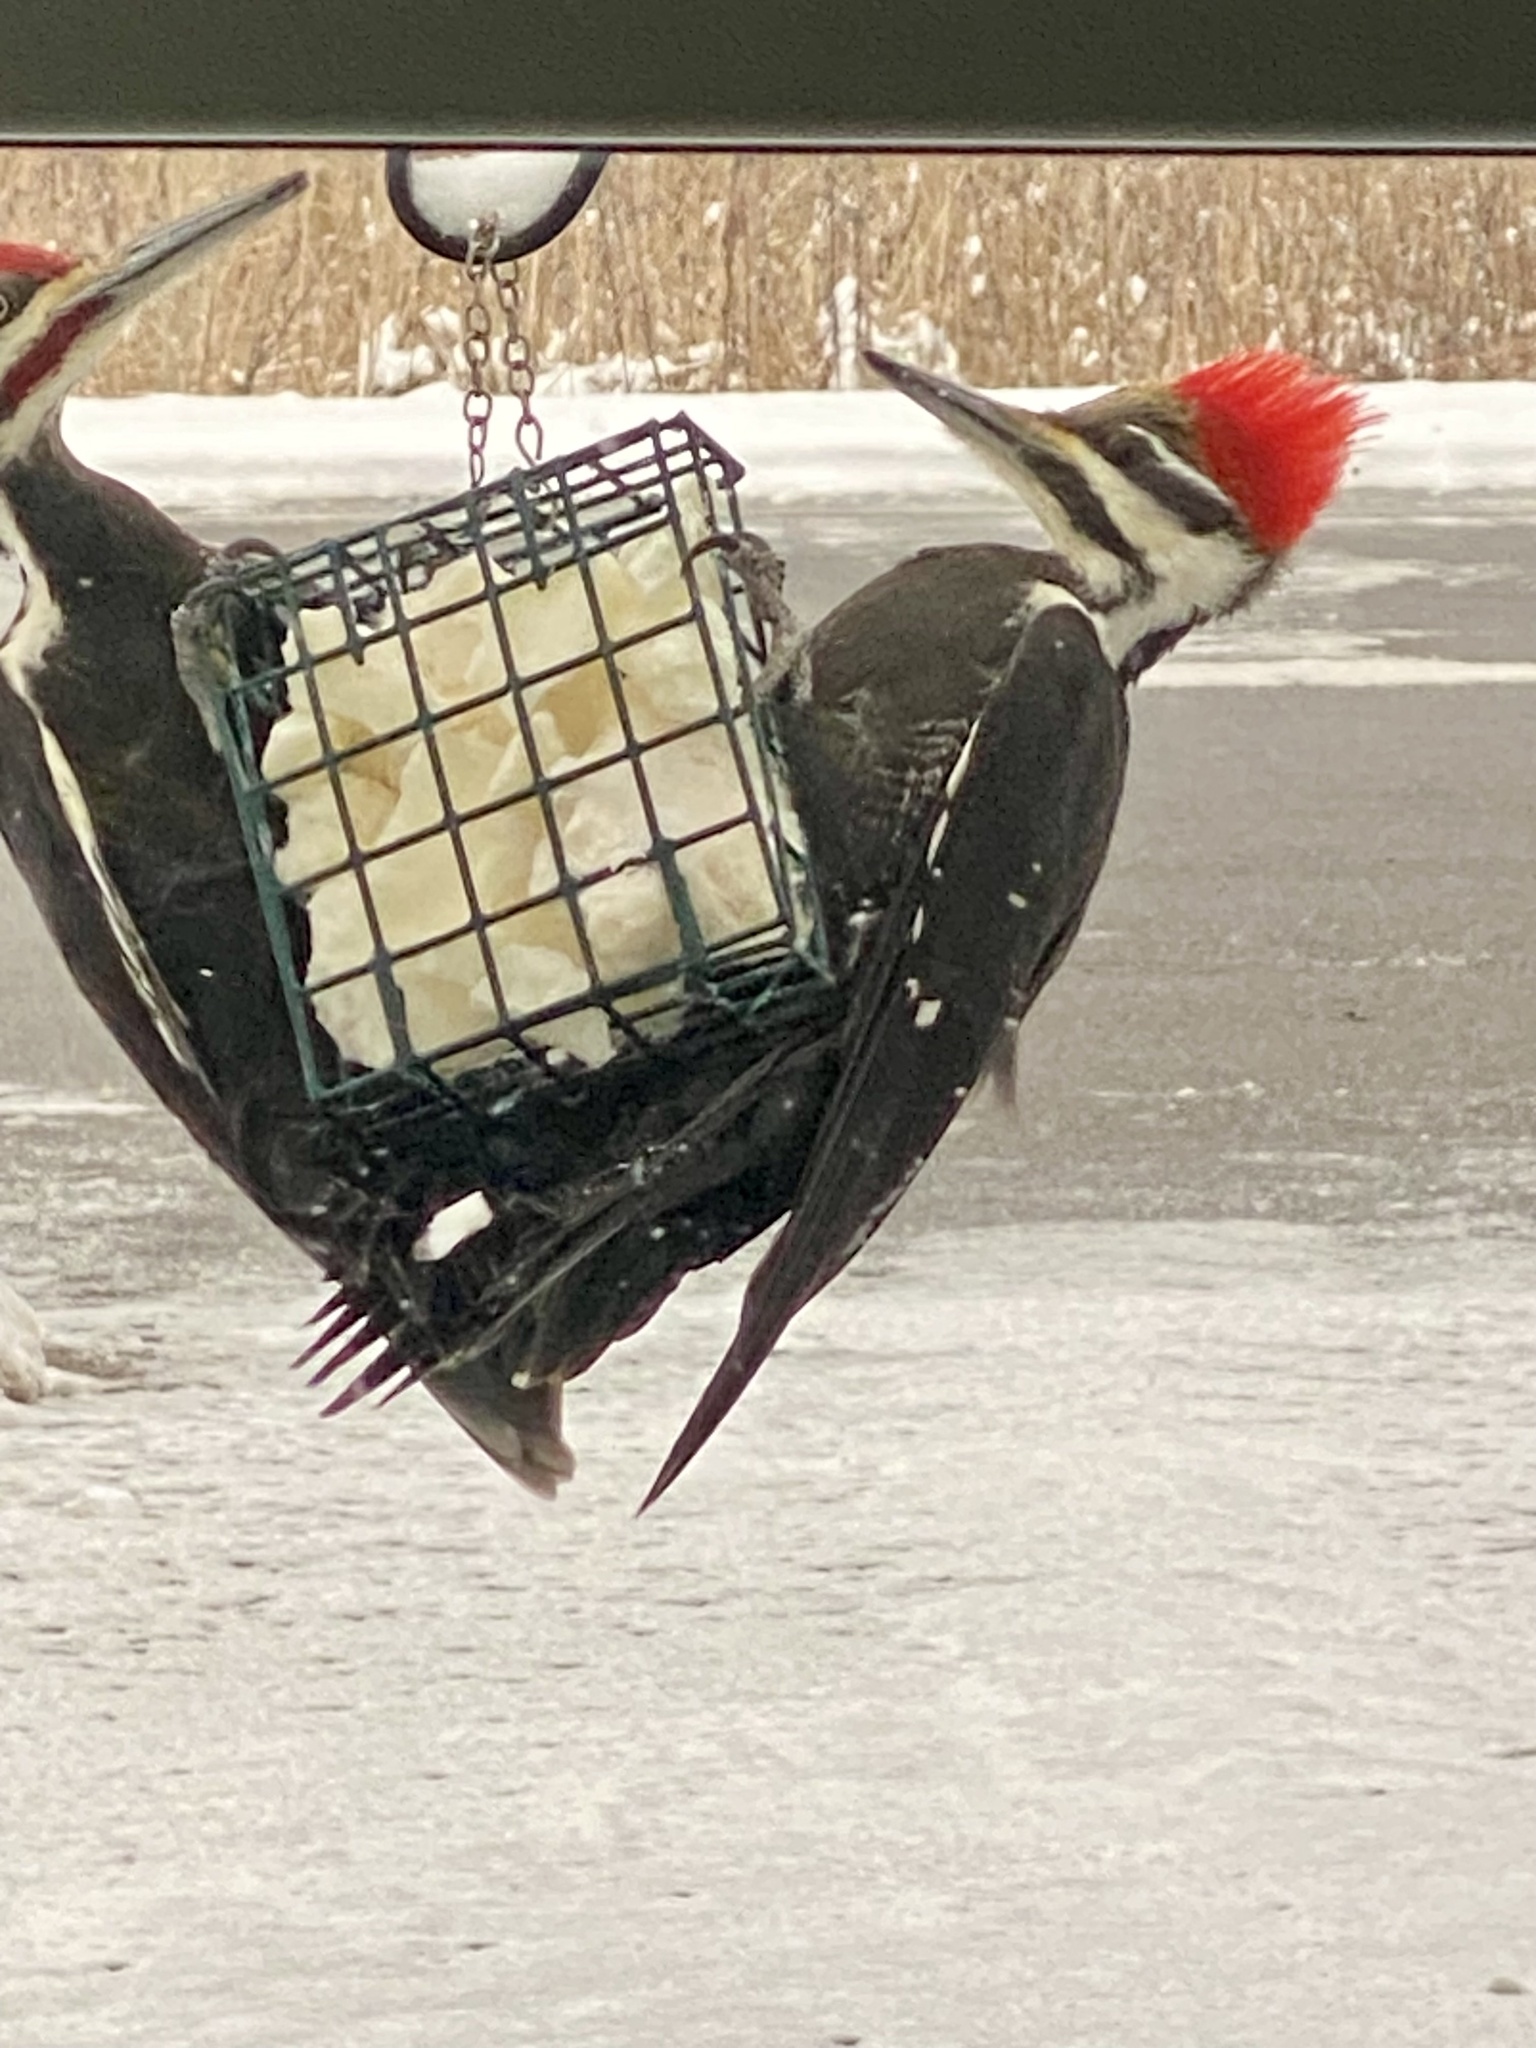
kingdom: Animalia
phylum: Chordata
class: Aves
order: Piciformes
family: Picidae
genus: Dryocopus
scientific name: Dryocopus pileatus
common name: Pileated woodpecker
